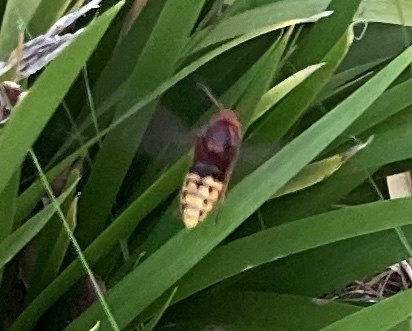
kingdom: Animalia
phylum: Arthropoda
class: Insecta
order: Hymenoptera
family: Vespidae
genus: Vespa
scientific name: Vespa crabro
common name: Hornet
